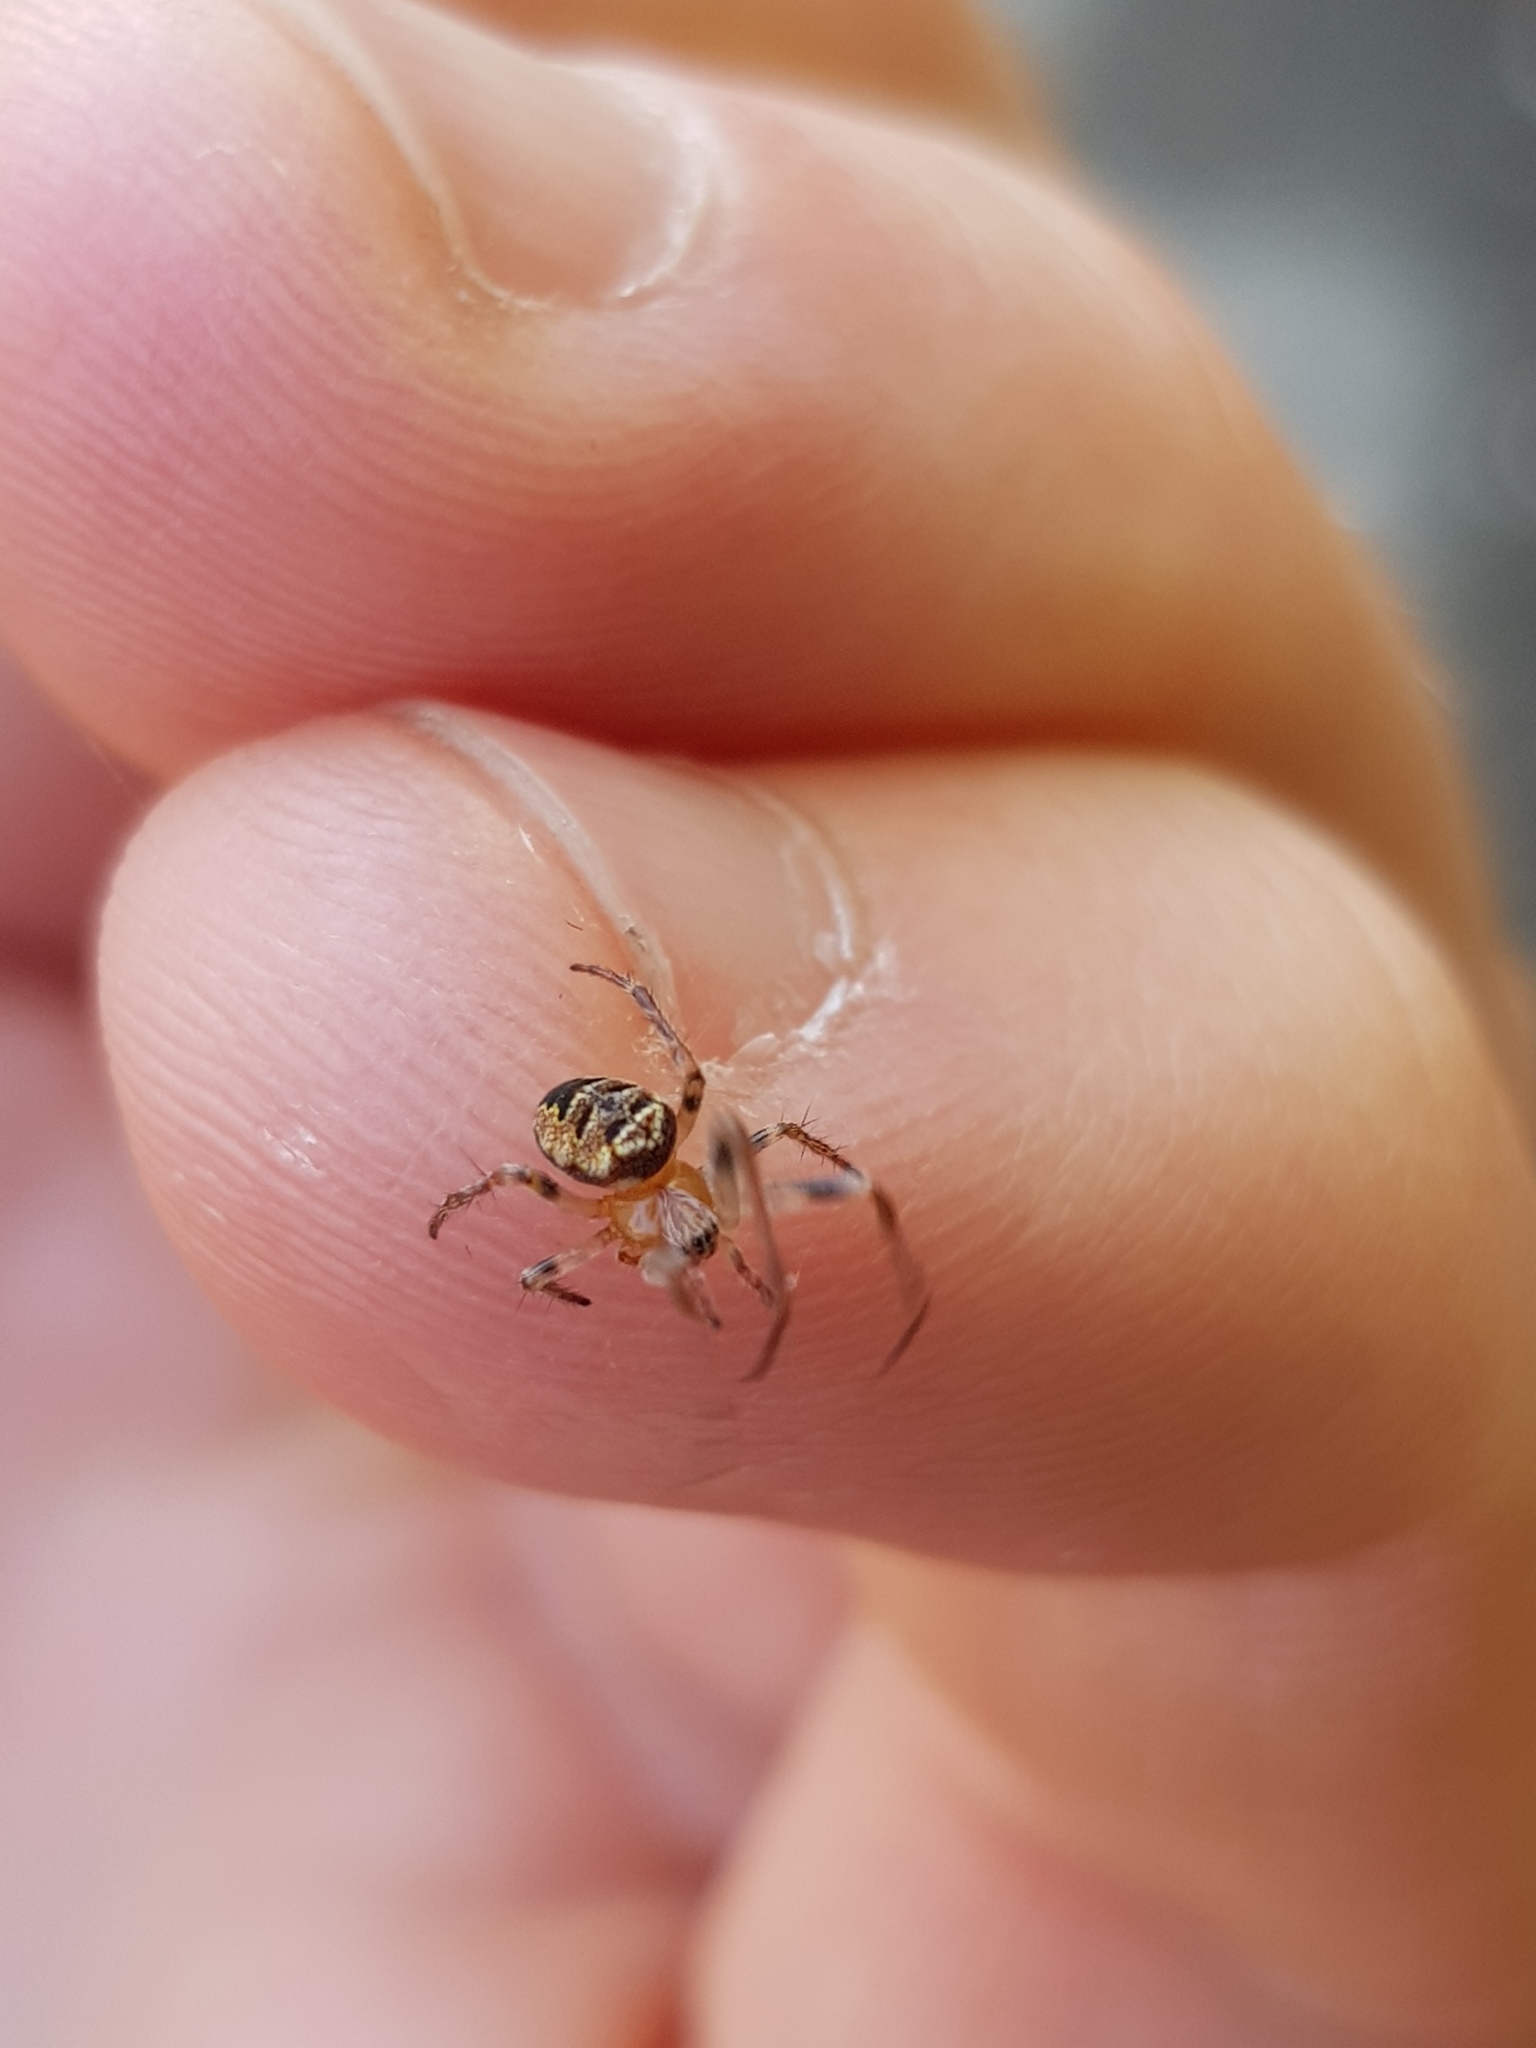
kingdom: Animalia
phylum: Arthropoda
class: Arachnida
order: Araneae
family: Araneidae
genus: Zilla
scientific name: Zilla diodia
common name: Zilla diodia
